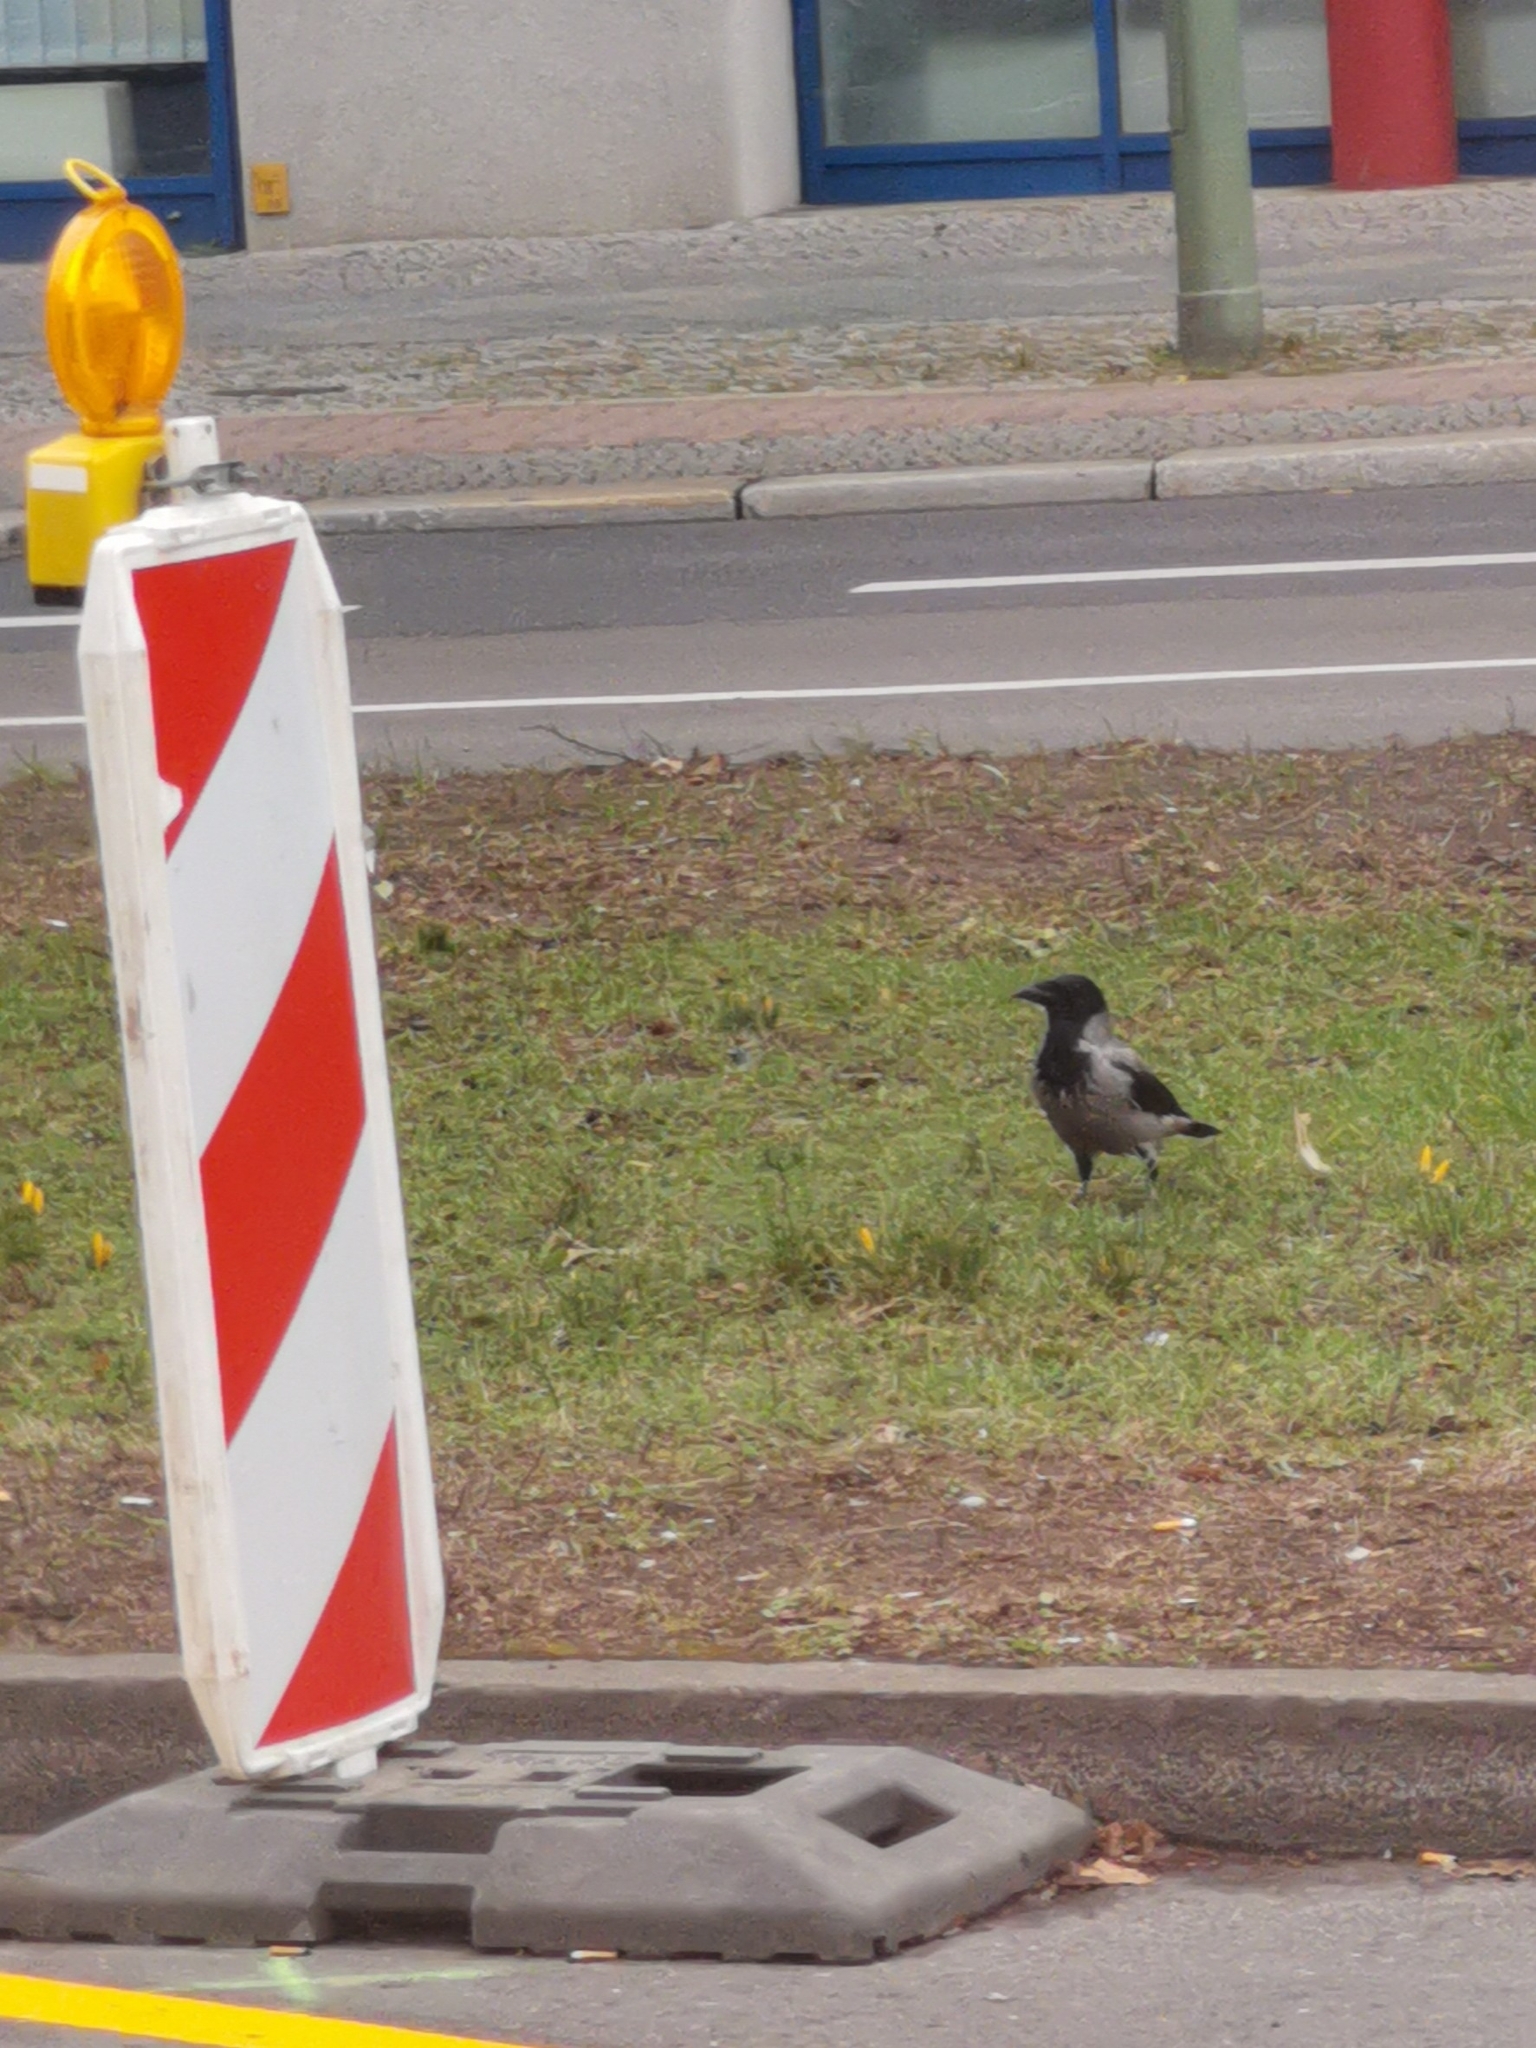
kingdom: Animalia
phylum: Chordata
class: Aves
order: Passeriformes
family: Corvidae
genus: Corvus
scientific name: Corvus cornix
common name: Hooded crow
